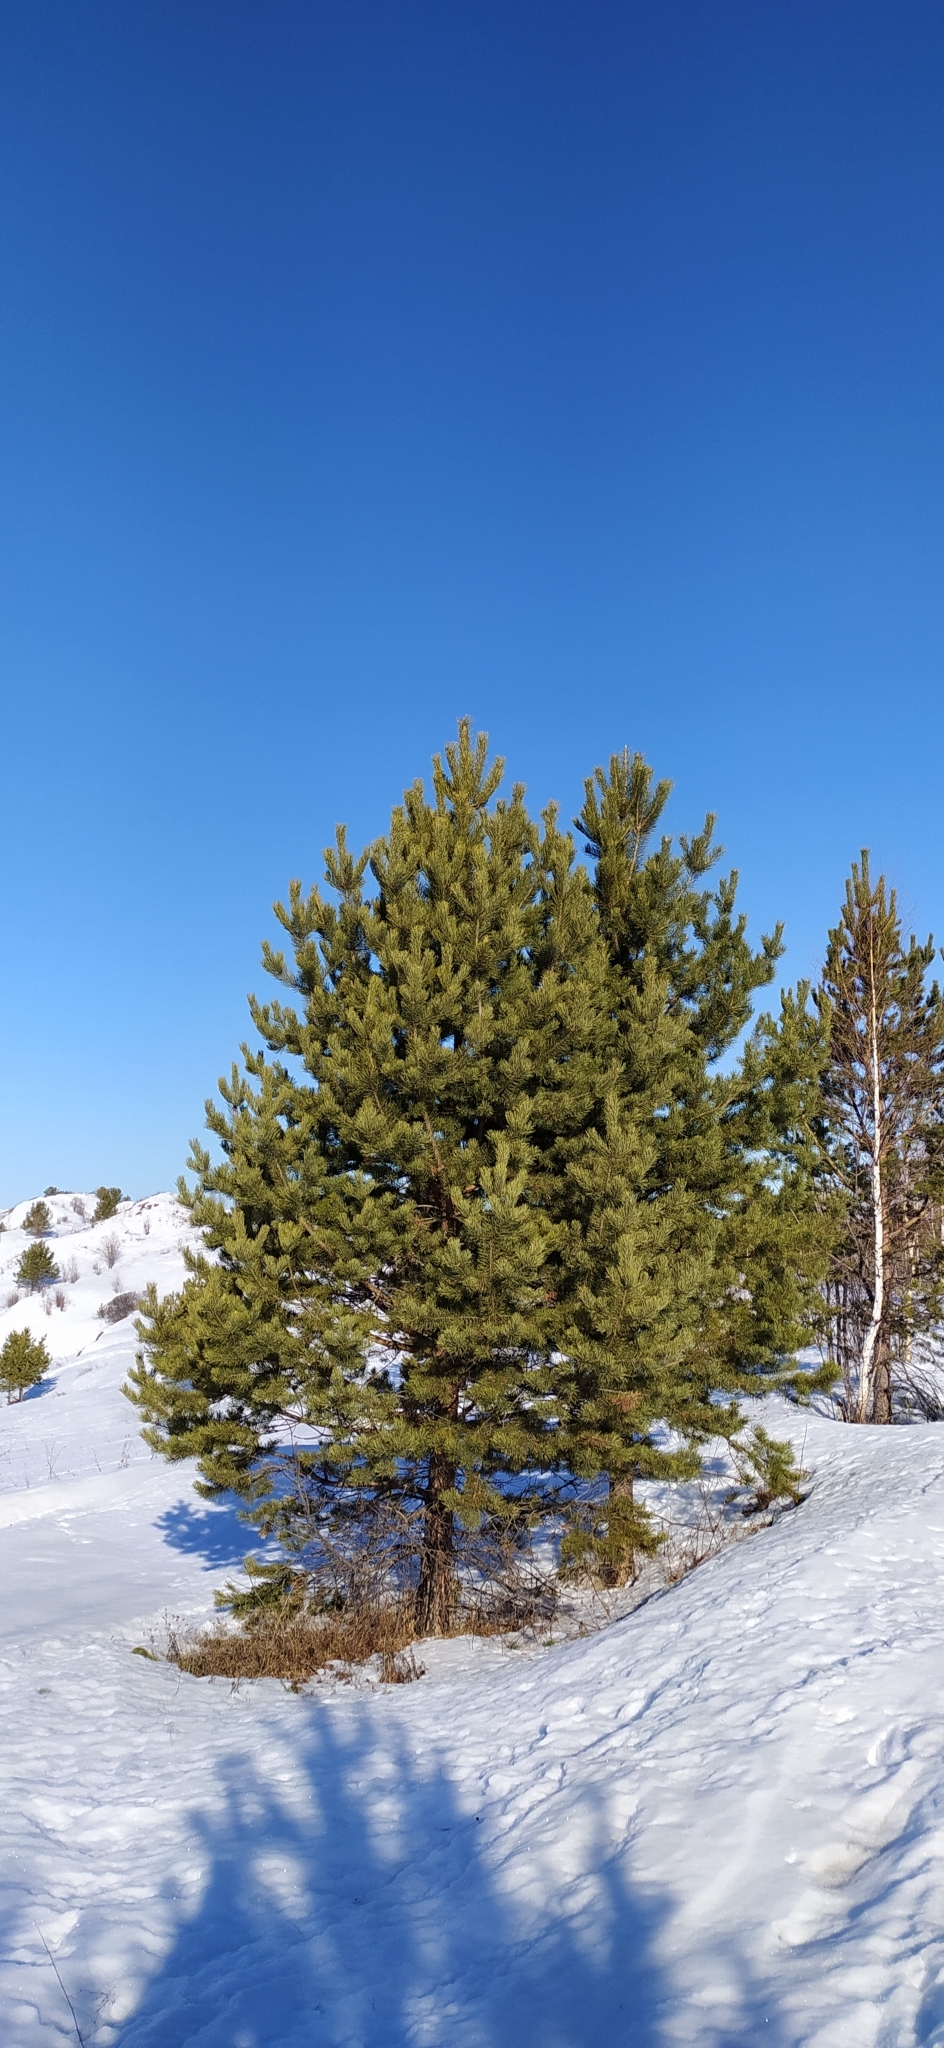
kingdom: Plantae
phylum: Tracheophyta
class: Pinopsida
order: Pinales
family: Pinaceae
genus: Pinus
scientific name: Pinus sylvestris
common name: Scots pine
